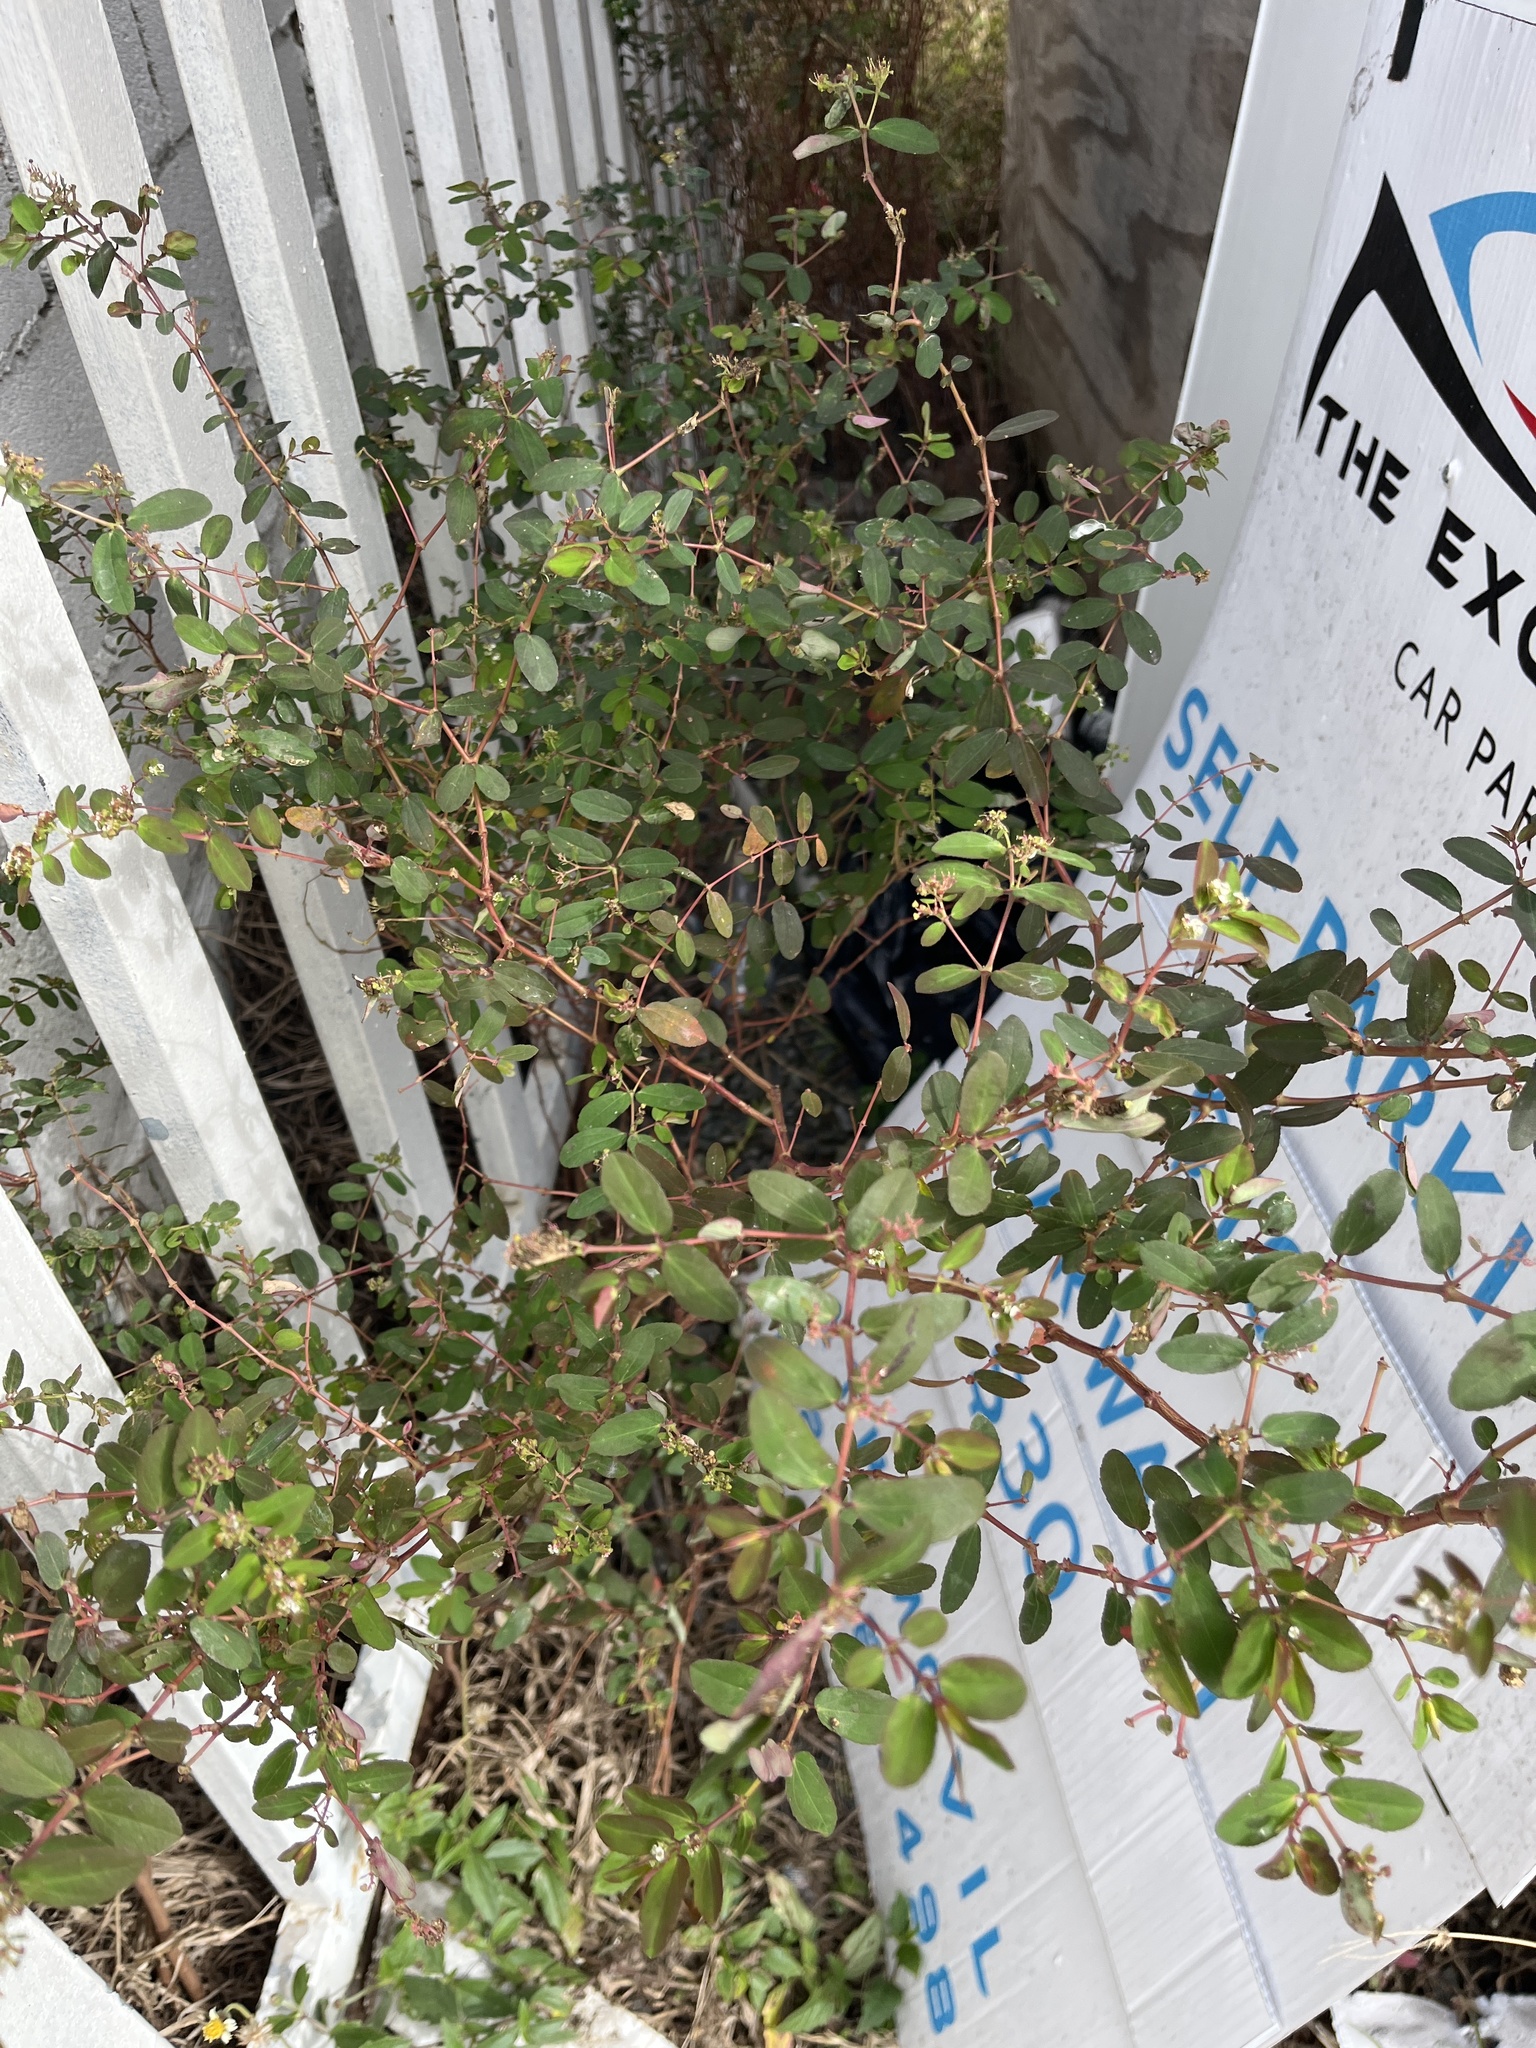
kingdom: Plantae
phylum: Tracheophyta
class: Magnoliopsida
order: Malpighiales
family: Euphorbiaceae
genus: Euphorbia
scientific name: Euphorbia hypericifolia
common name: Graceful sandmat
